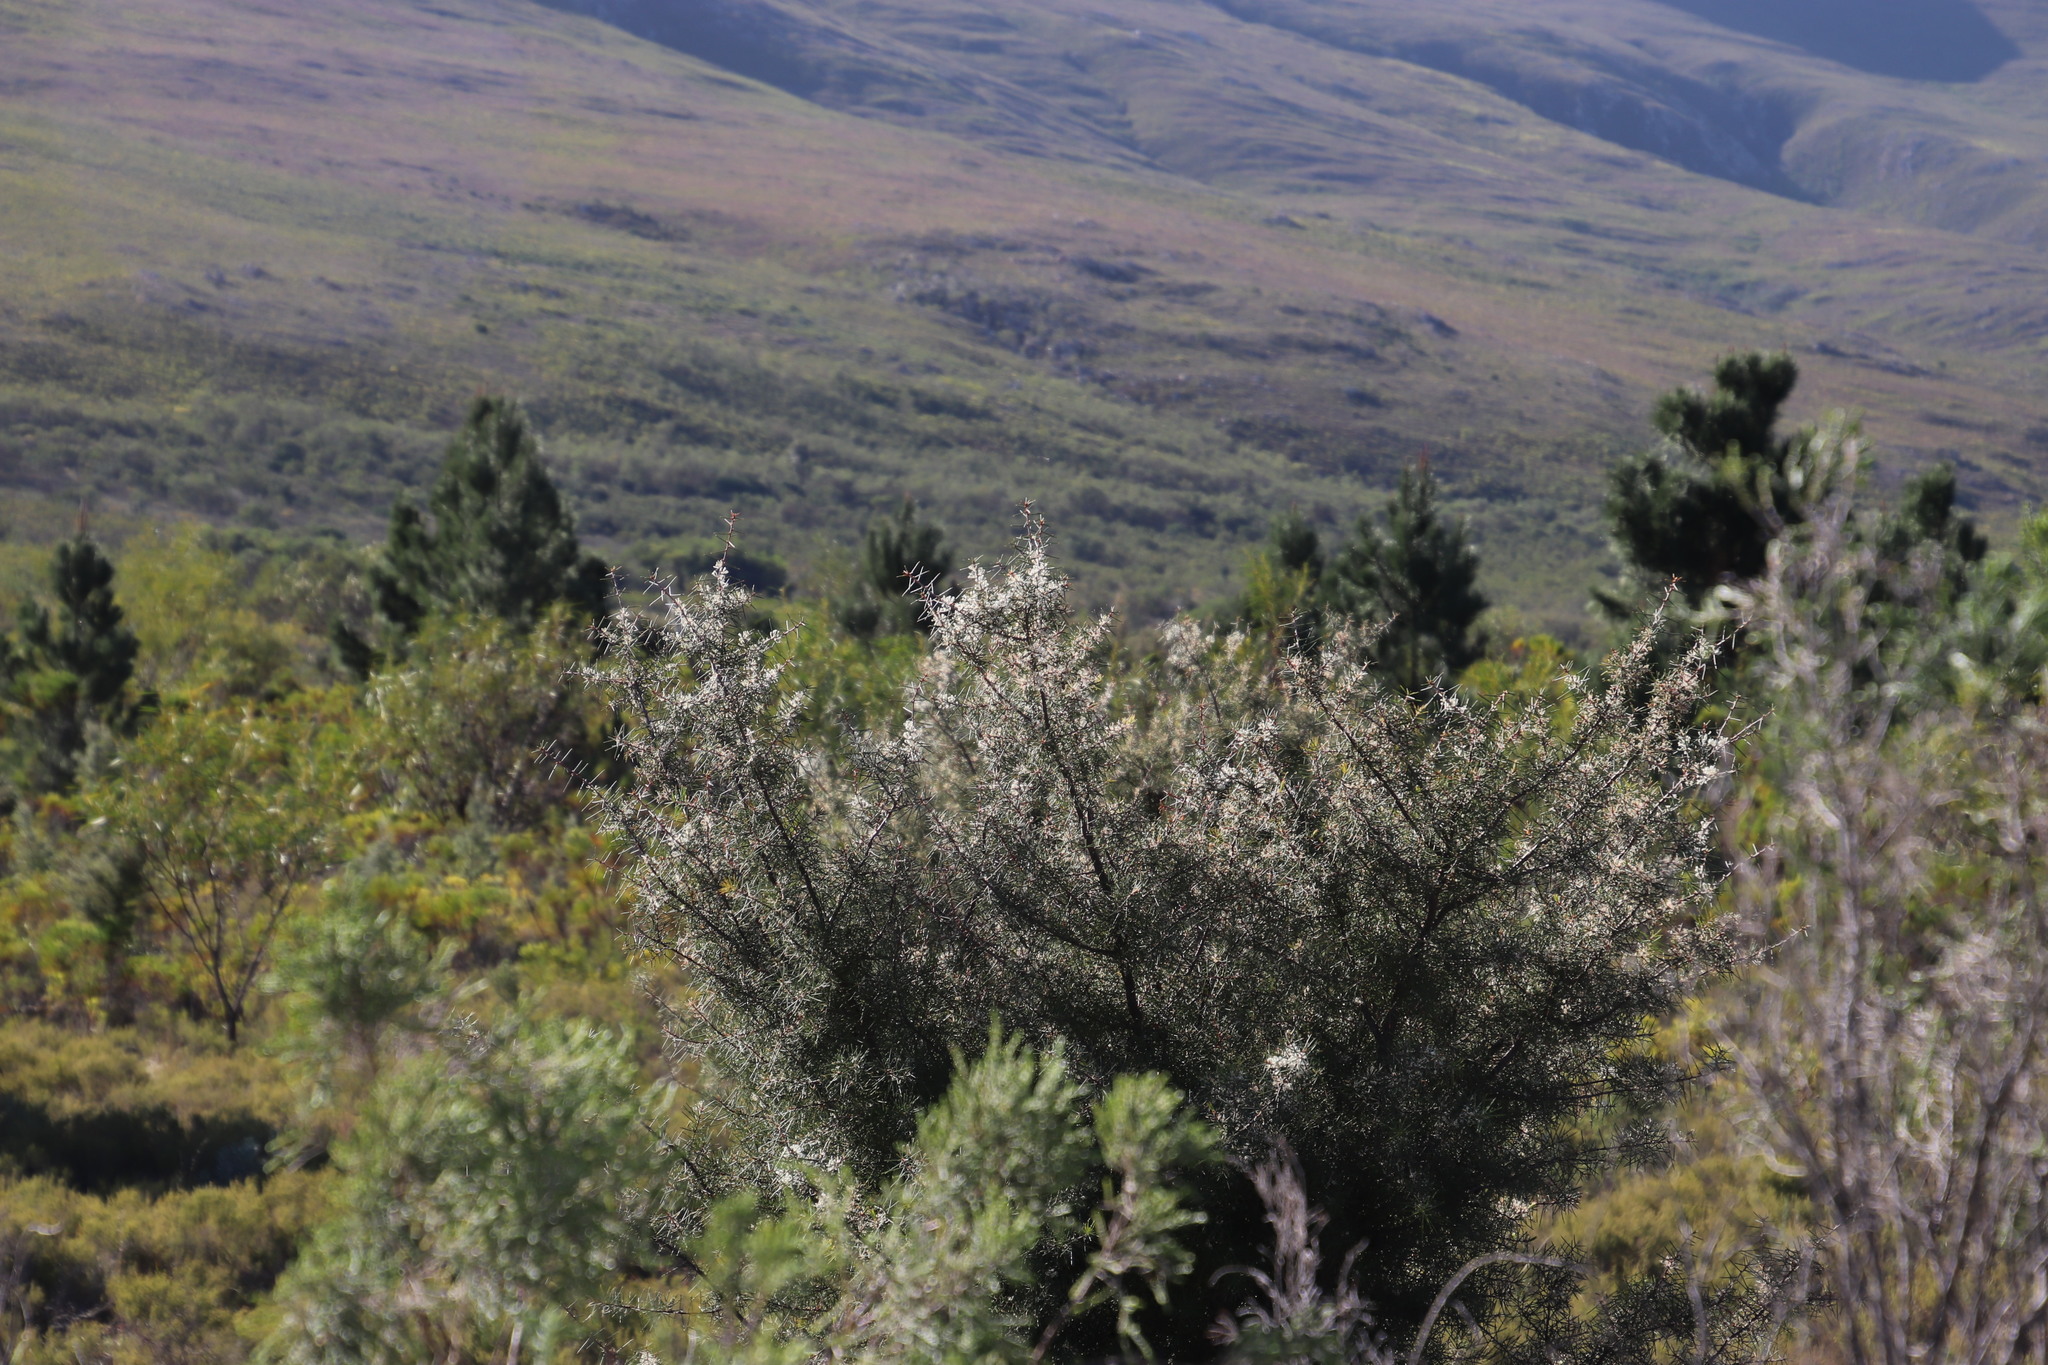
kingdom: Plantae
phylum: Tracheophyta
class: Magnoliopsida
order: Proteales
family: Proteaceae
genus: Hakea
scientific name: Hakea gibbosa
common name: Rock hakea
